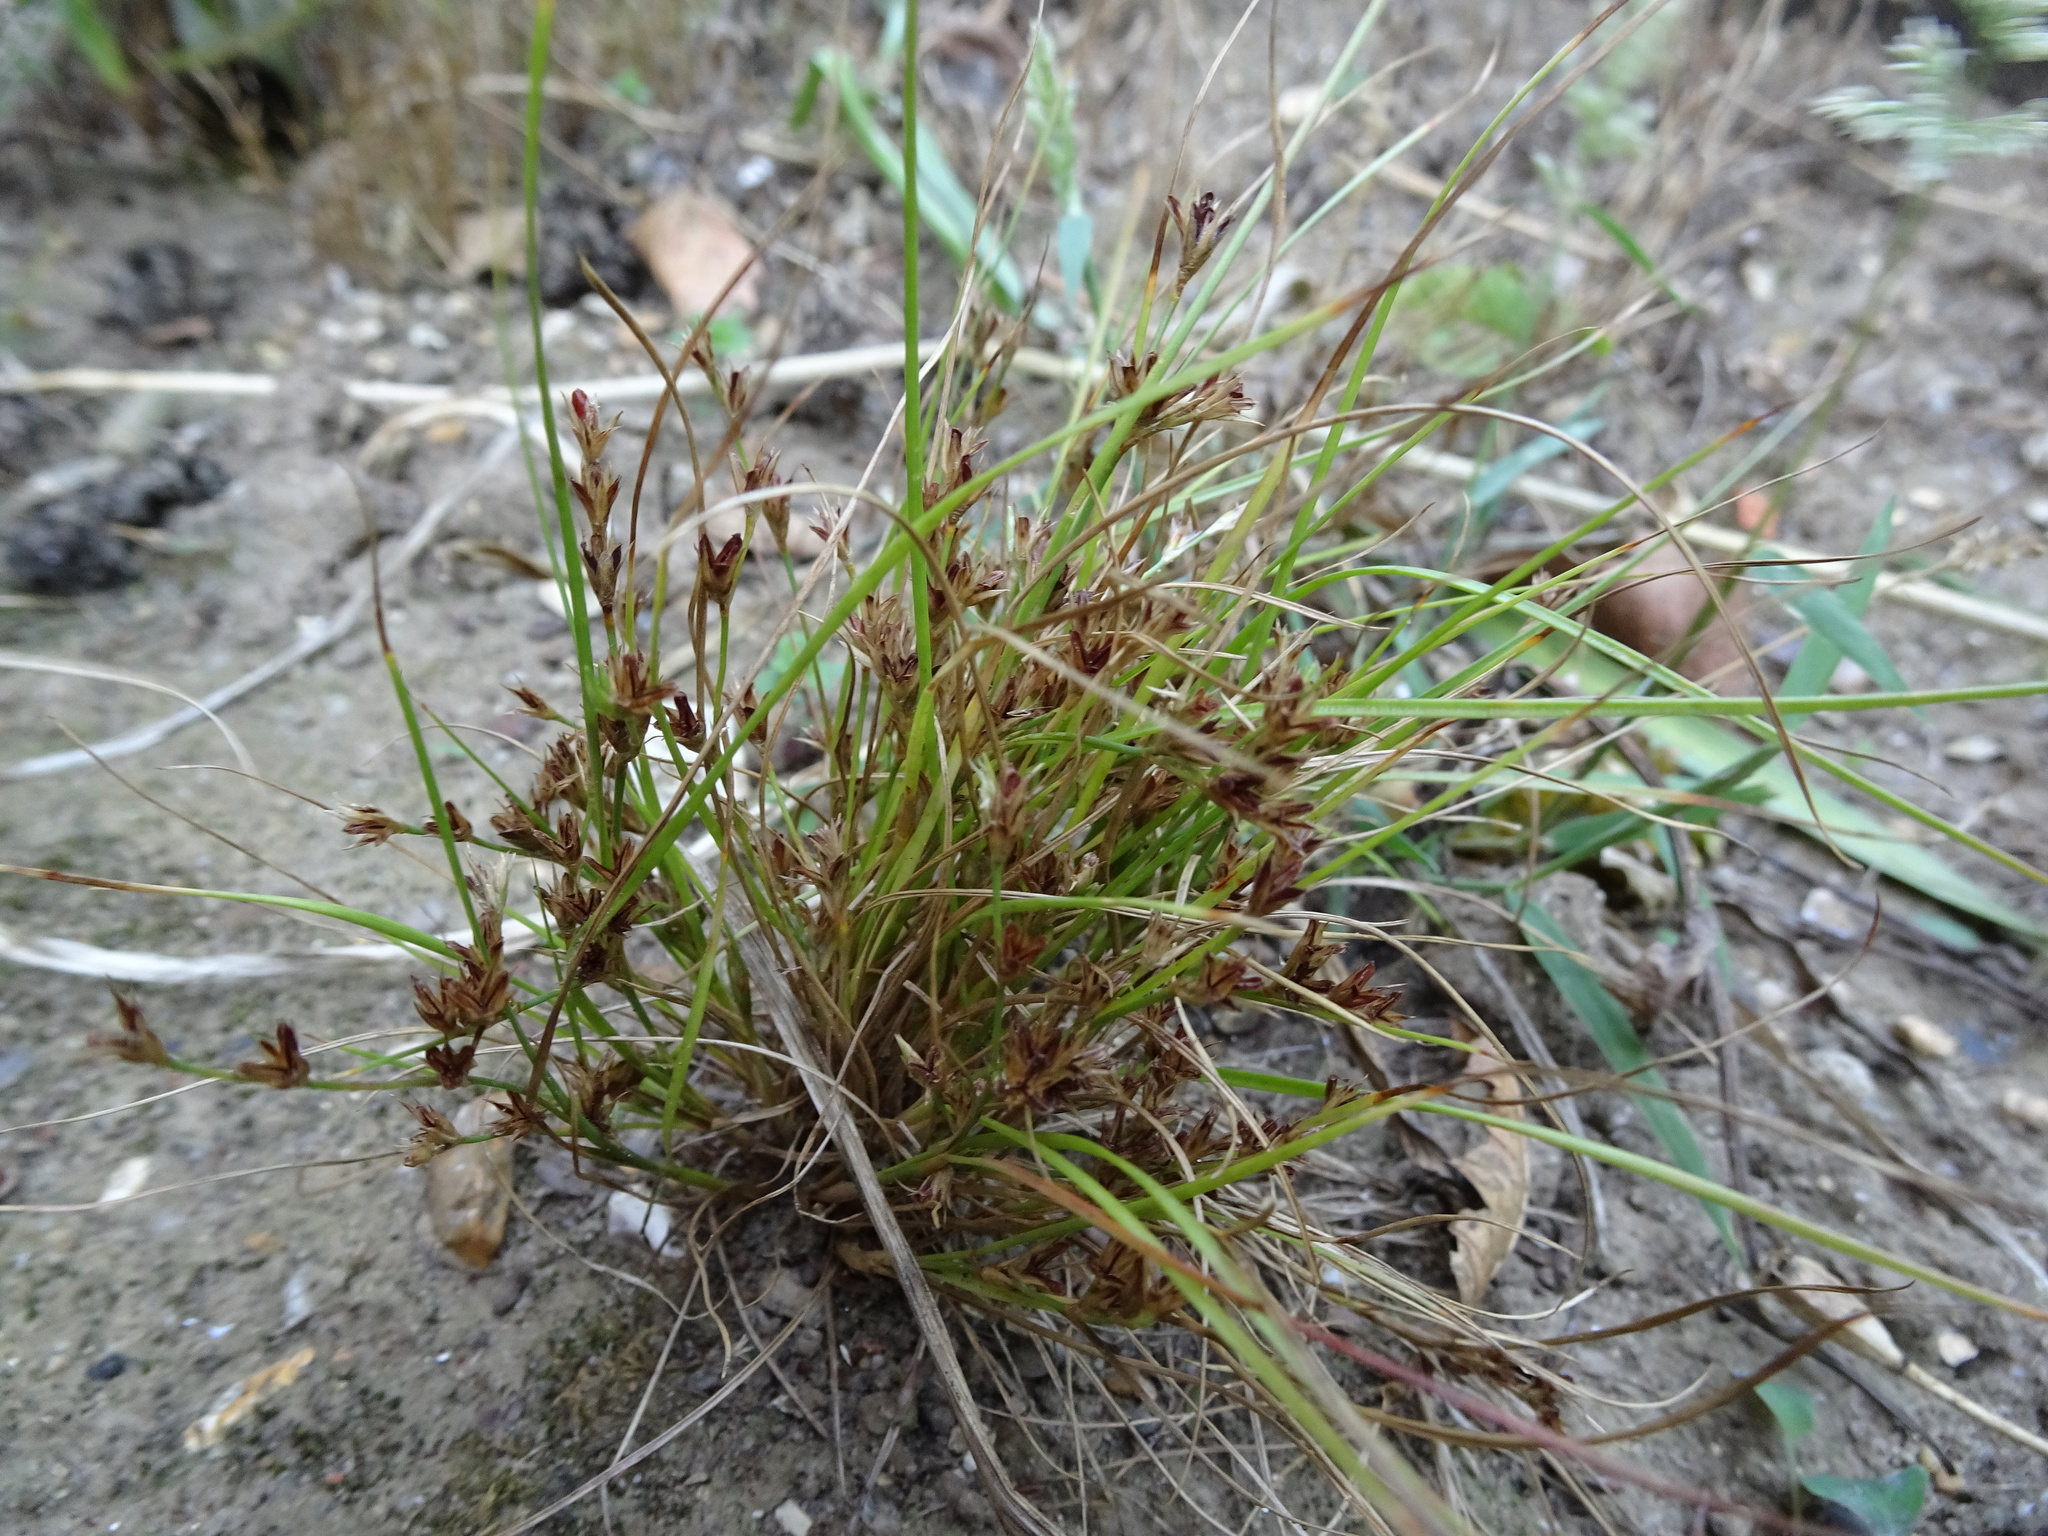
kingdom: Plantae
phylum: Tracheophyta
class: Liliopsida
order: Poales
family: Juncaceae
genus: Juncus
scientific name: Juncus bufonius
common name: Toad rush
